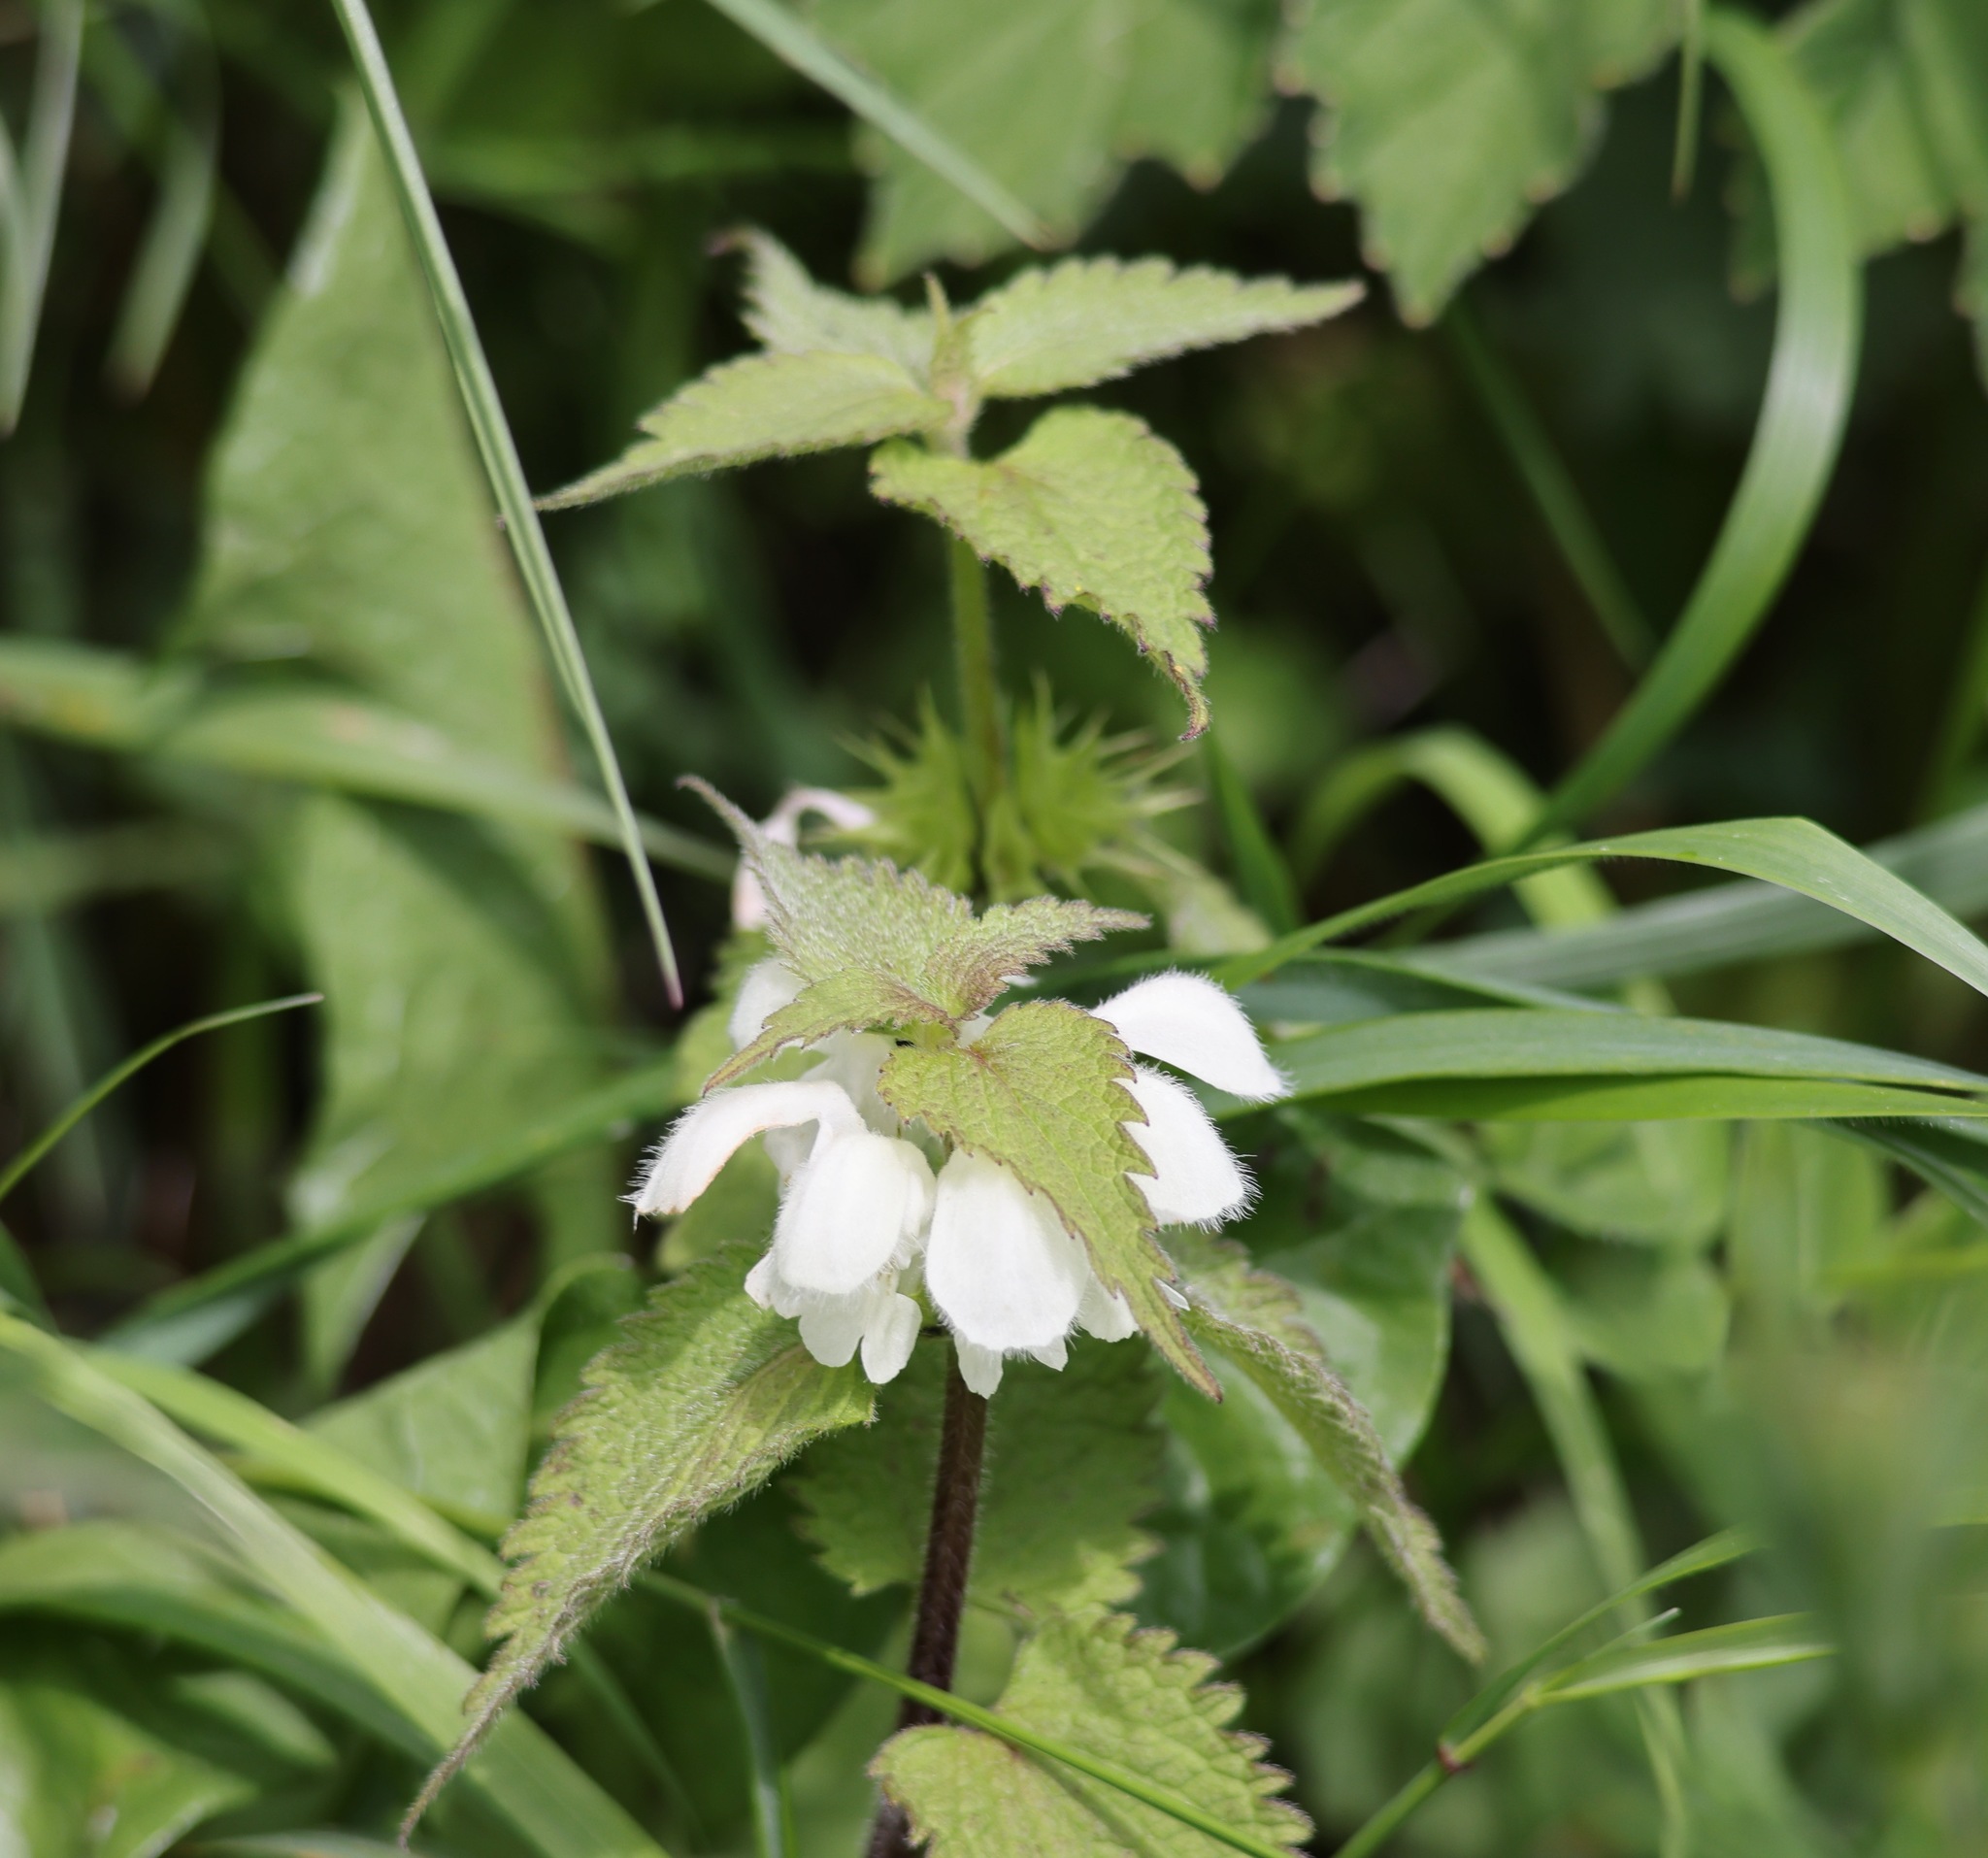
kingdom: Plantae
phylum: Tracheophyta
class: Magnoliopsida
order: Lamiales
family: Lamiaceae
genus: Lamium
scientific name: Lamium album
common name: White dead-nettle
